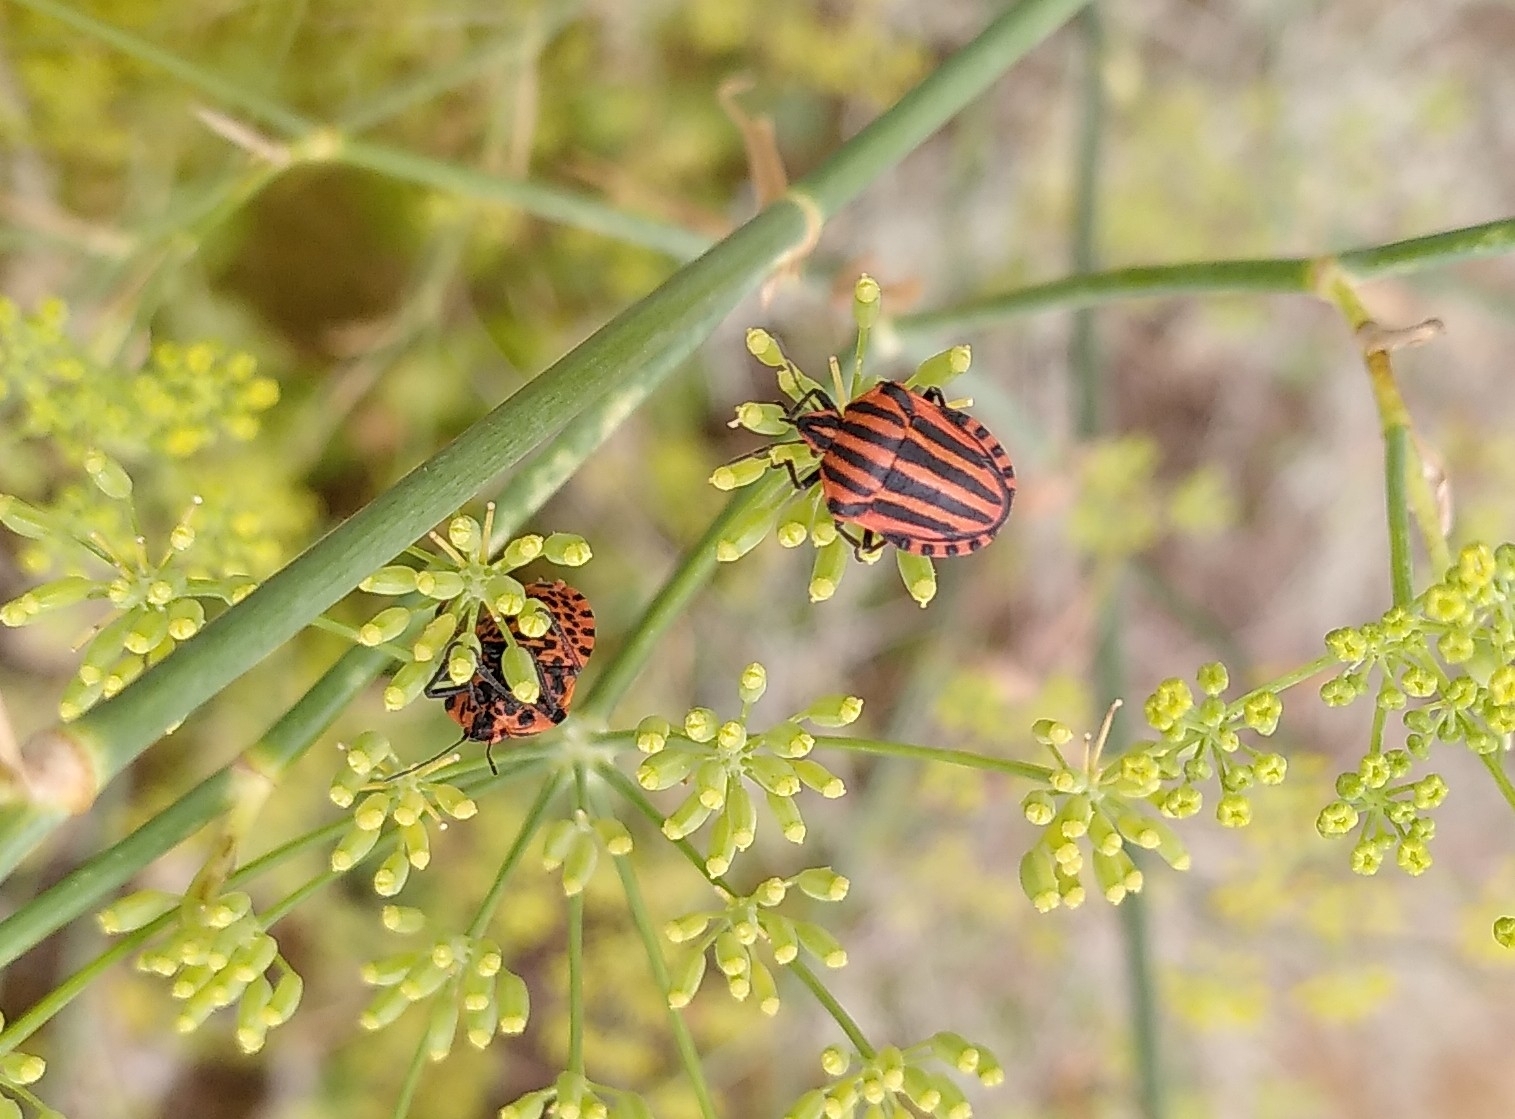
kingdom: Animalia
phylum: Arthropoda
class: Insecta
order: Hemiptera
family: Pentatomidae
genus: Graphosoma
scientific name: Graphosoma italicum
